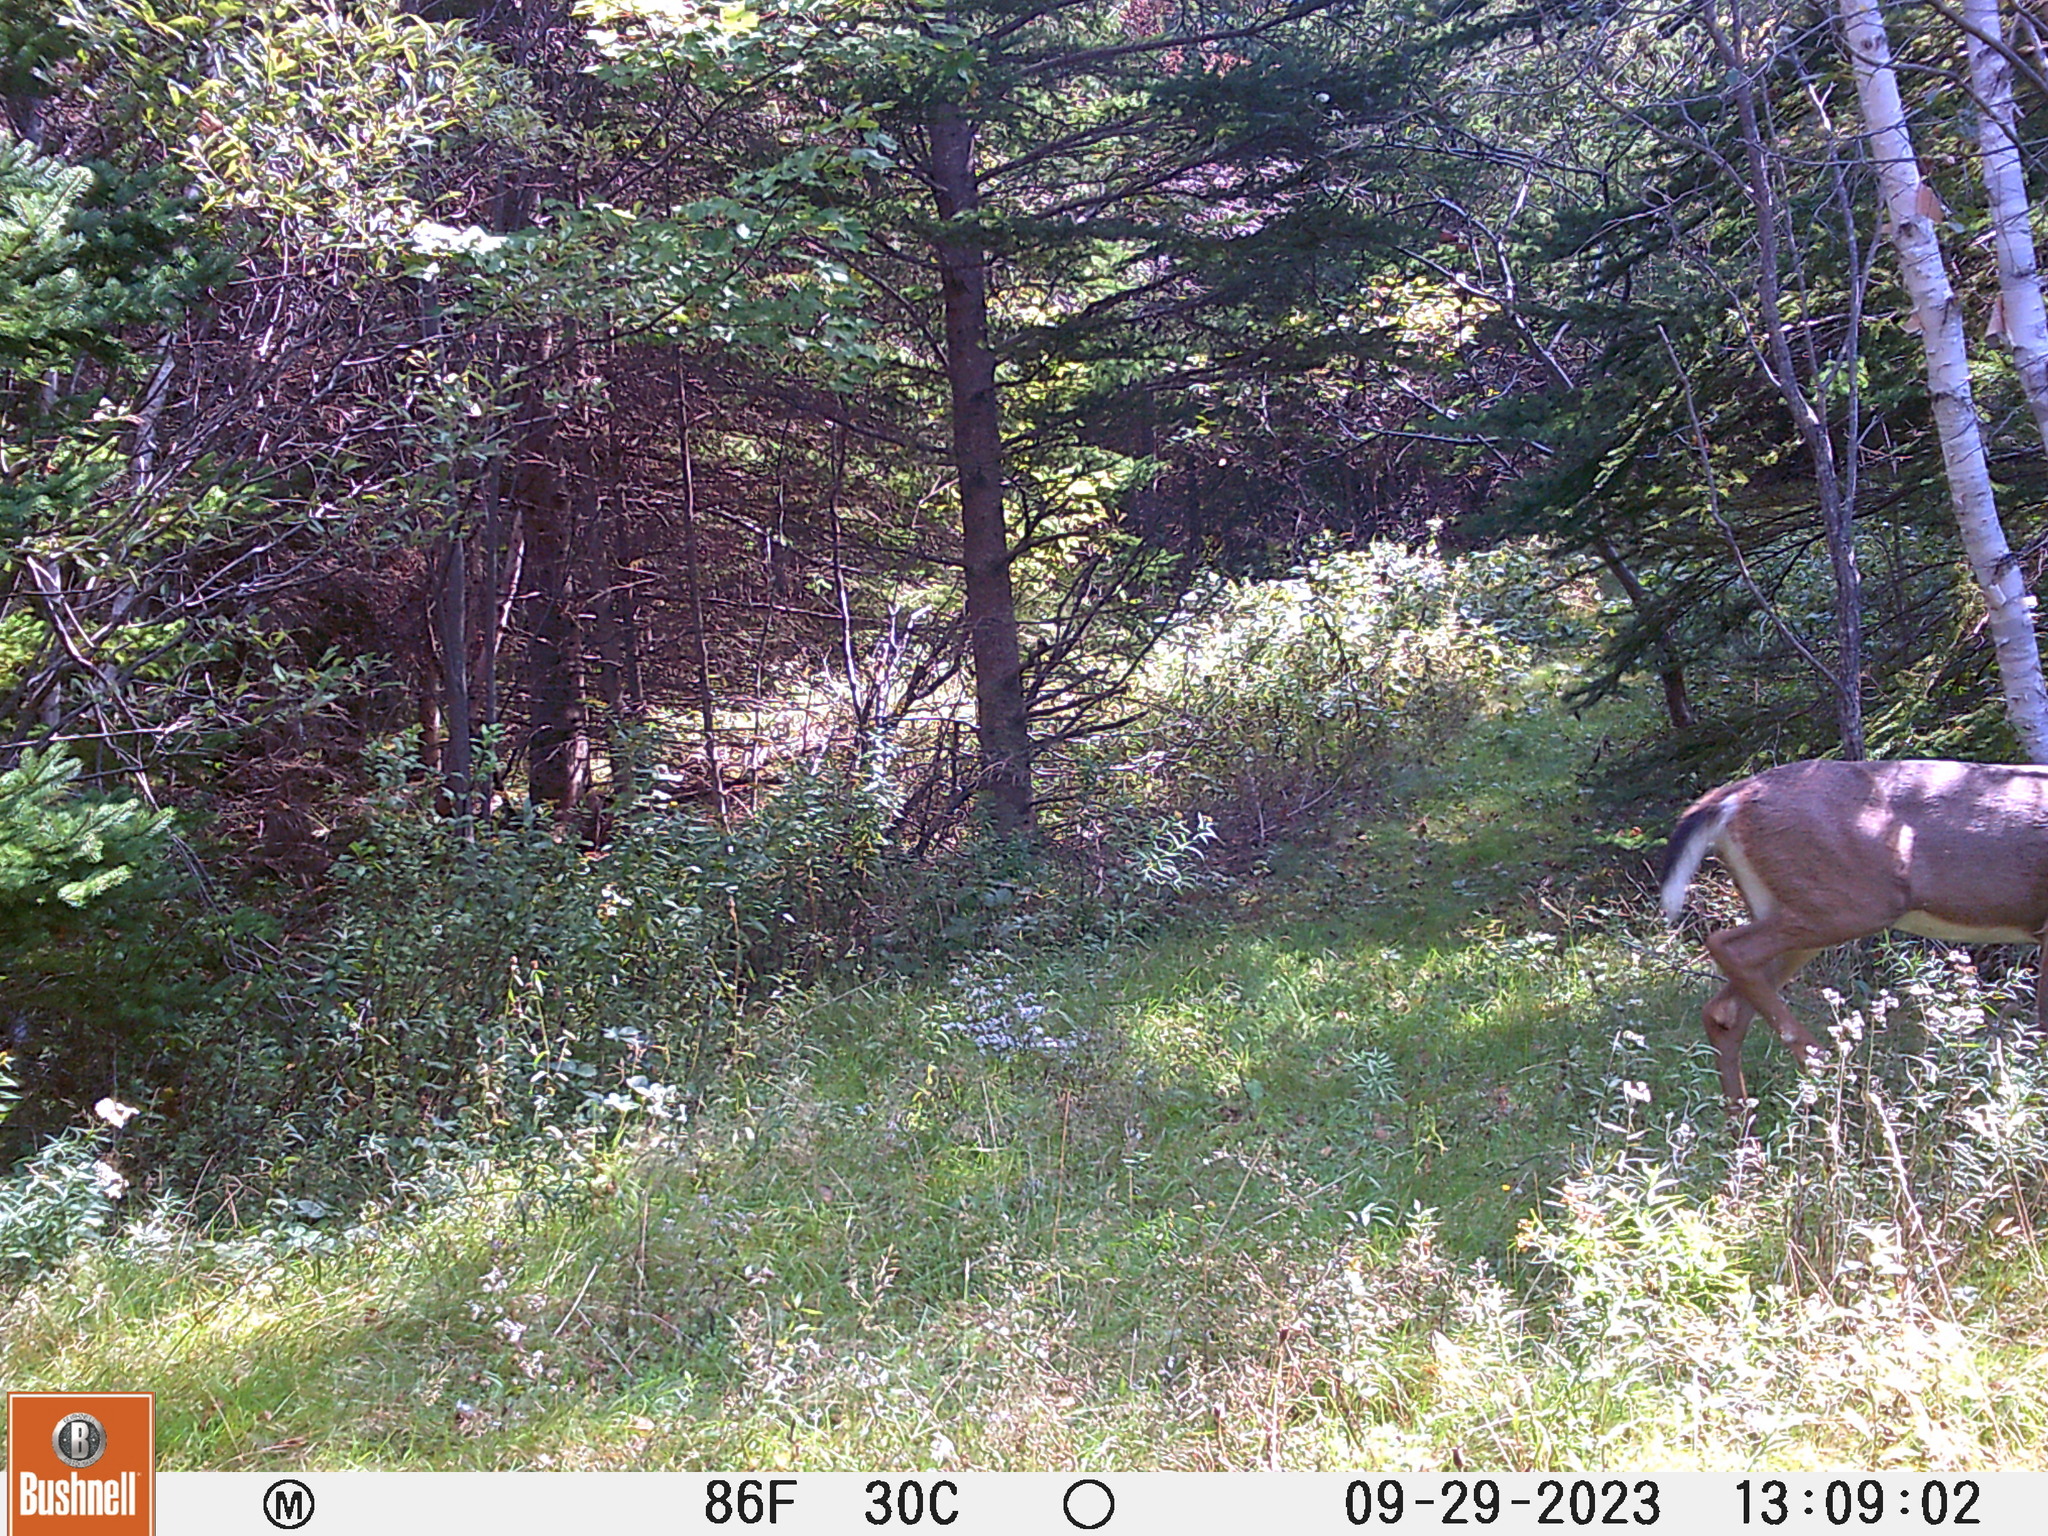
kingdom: Animalia
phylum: Chordata
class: Mammalia
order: Artiodactyla
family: Cervidae
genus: Odocoileus
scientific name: Odocoileus virginianus
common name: White-tailed deer
